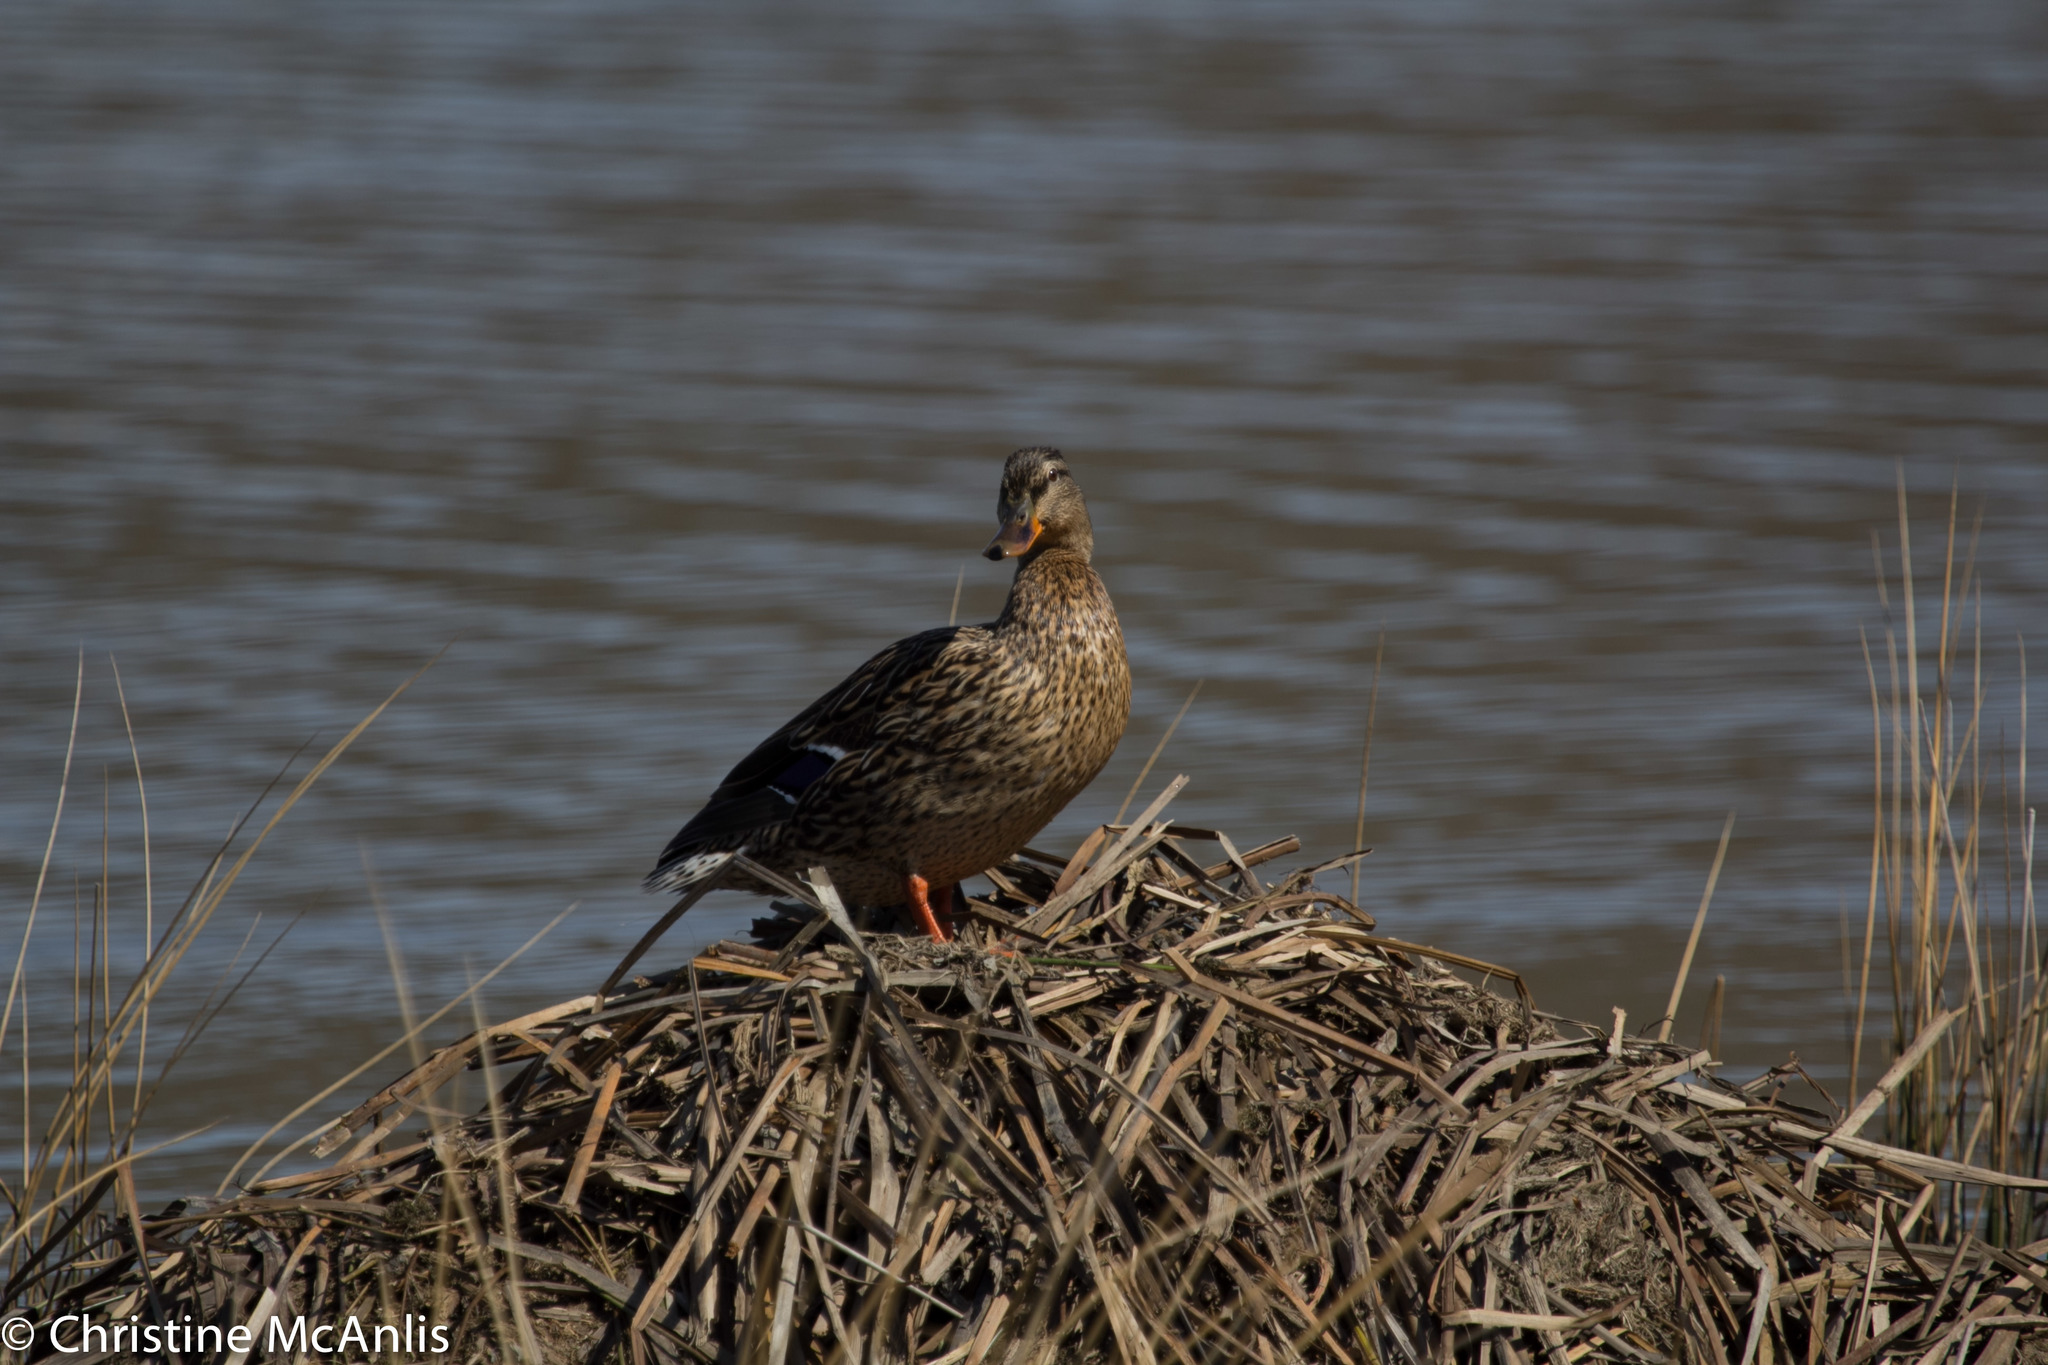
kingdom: Animalia
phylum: Chordata
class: Aves
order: Anseriformes
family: Anatidae
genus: Anas
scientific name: Anas platyrhynchos
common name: Mallard
